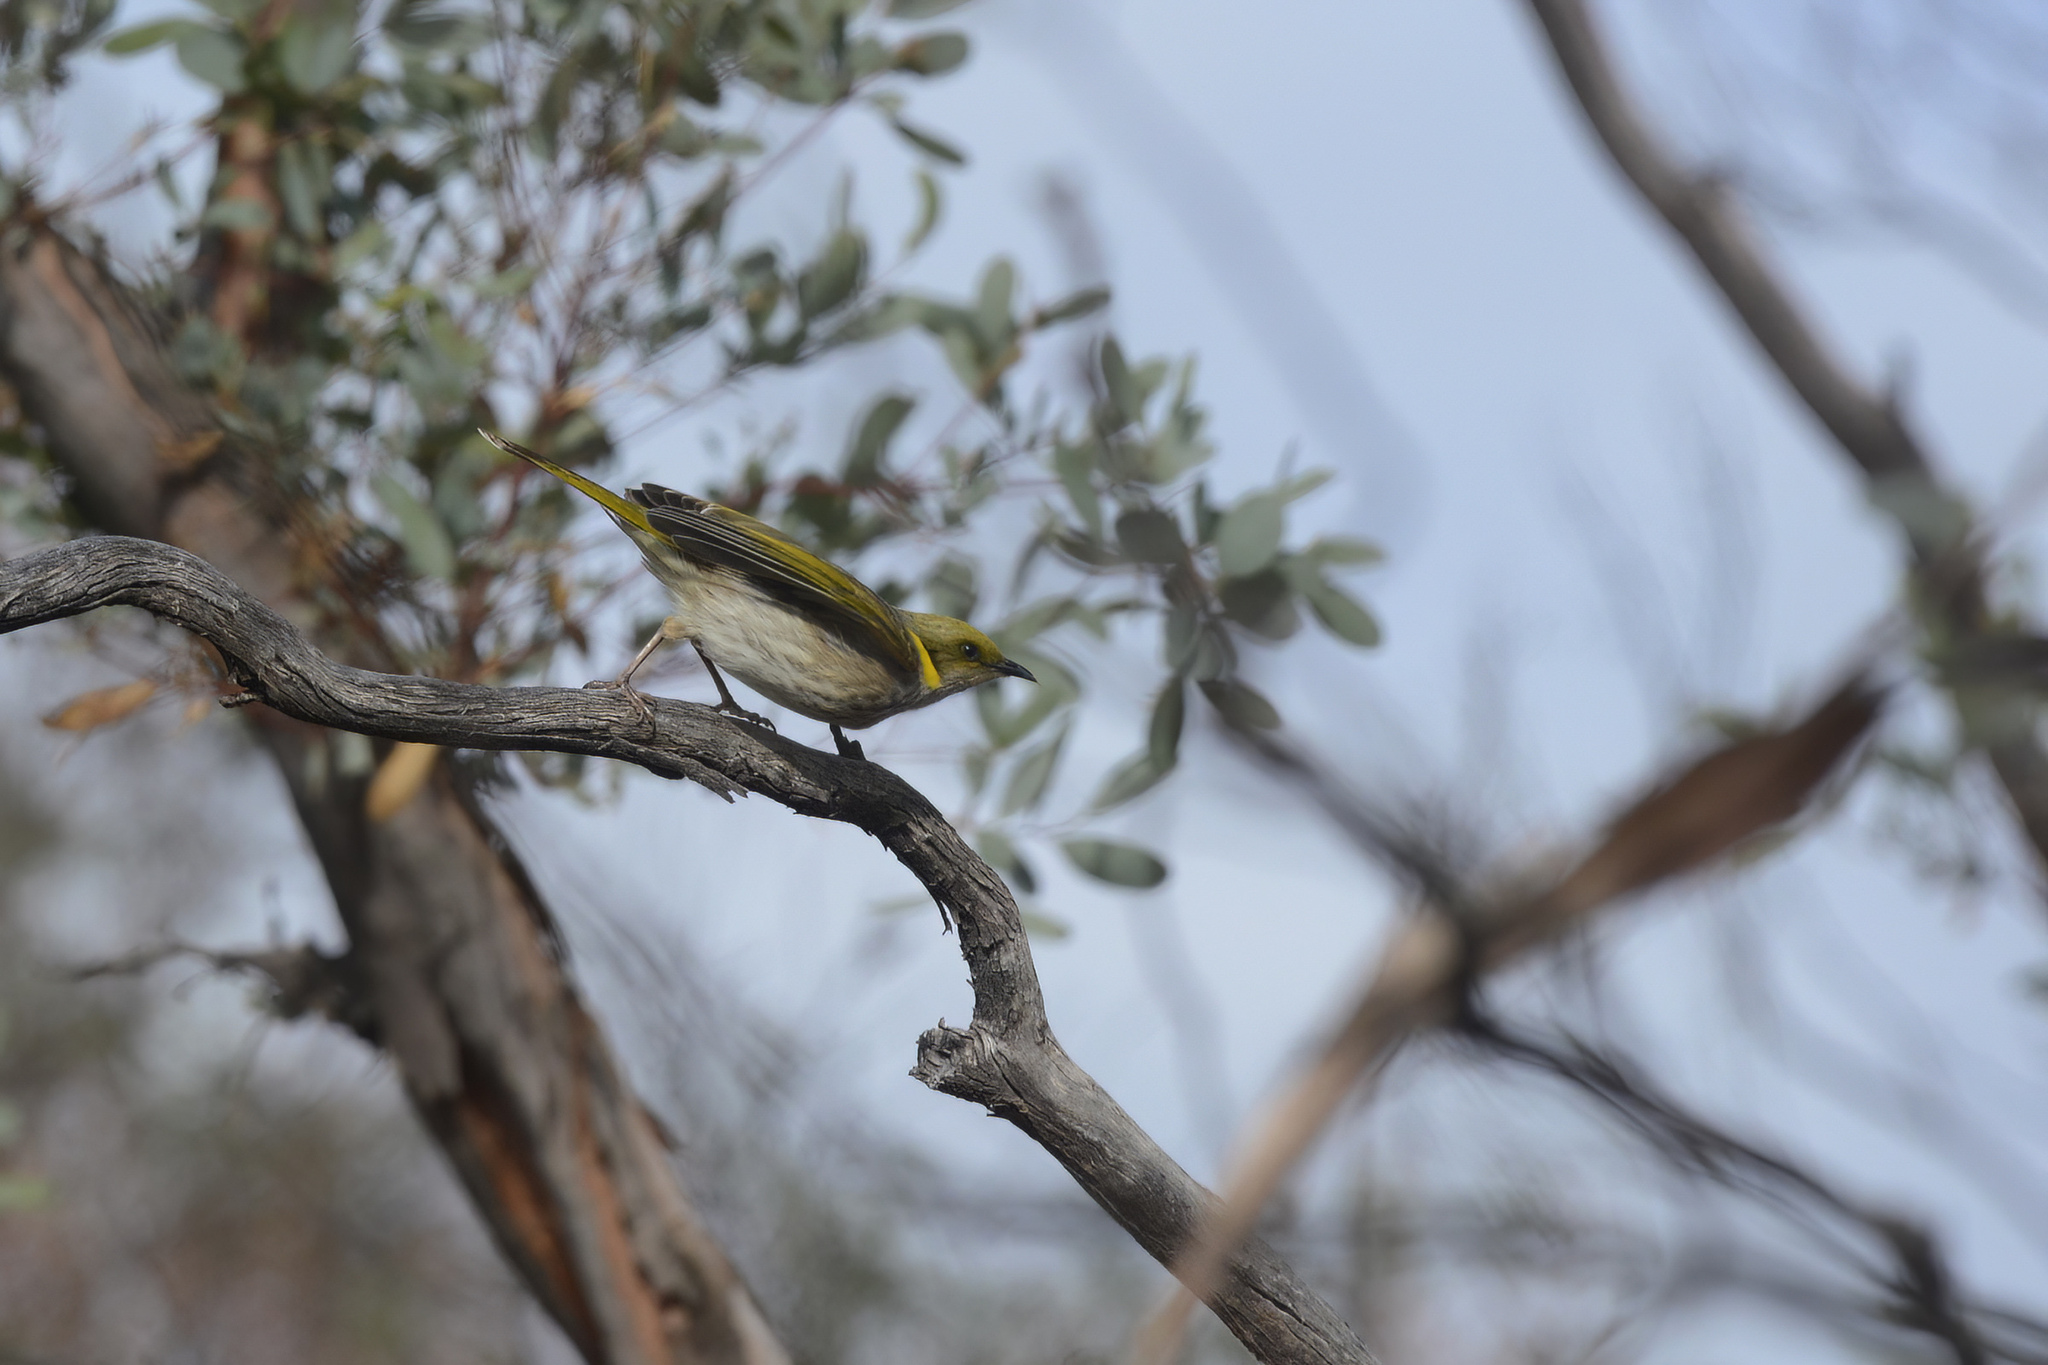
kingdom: Animalia
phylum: Chordata
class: Aves
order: Passeriformes
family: Meliphagidae
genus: Ptilotula
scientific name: Ptilotula ornata
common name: Yellow-plumed honeyeater
